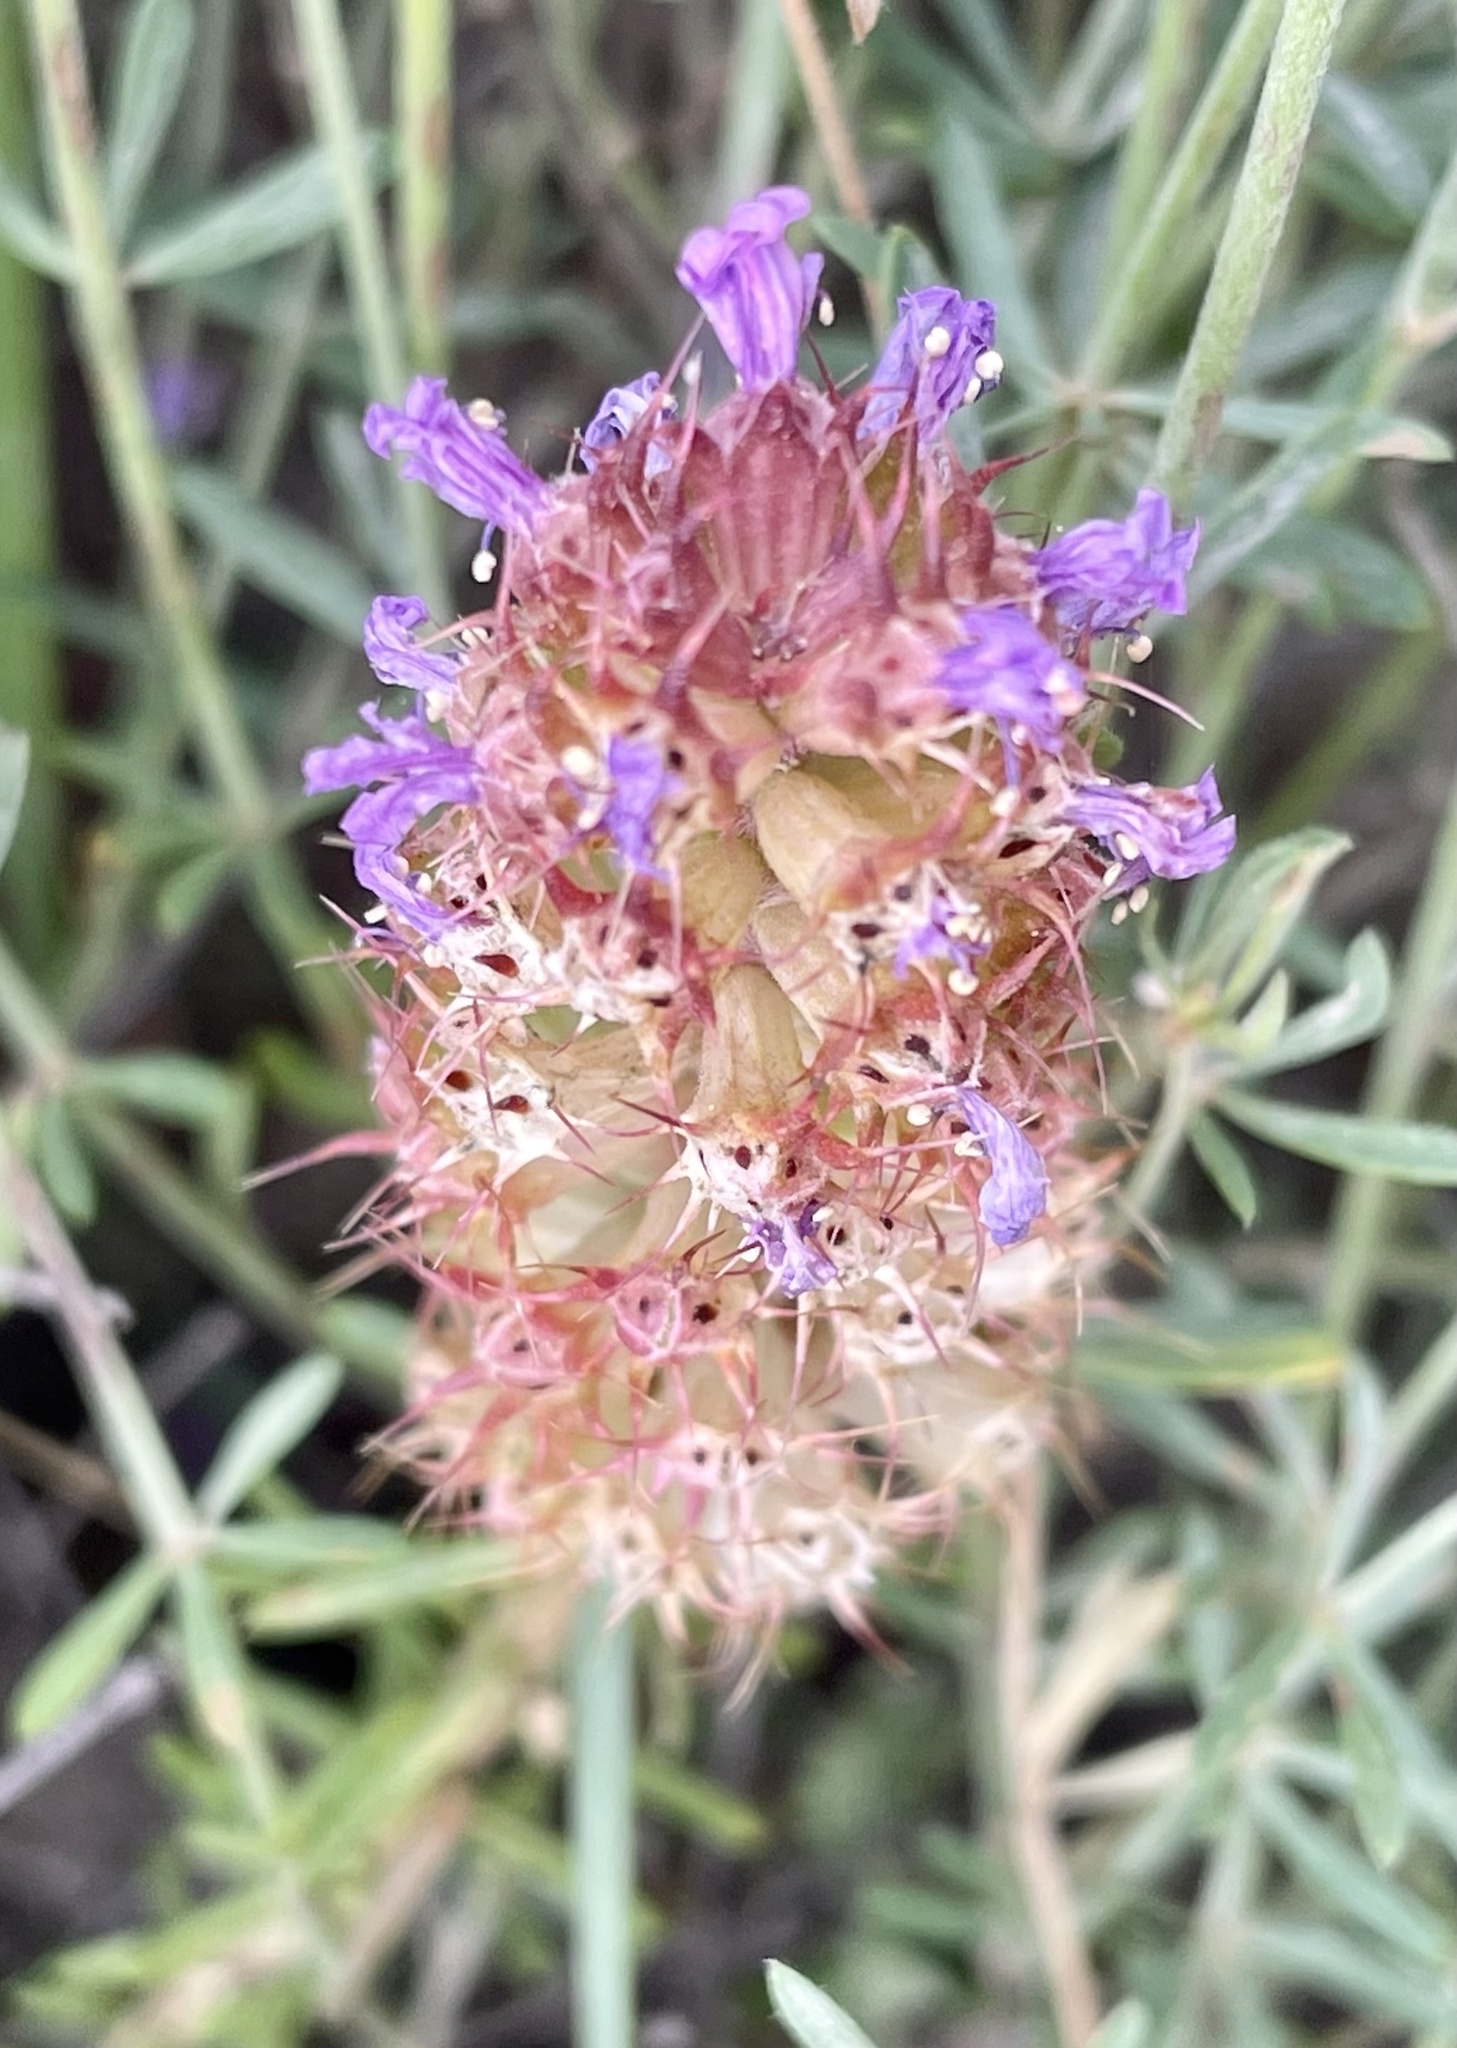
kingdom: Plantae
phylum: Tracheophyta
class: Magnoliopsida
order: Ericales
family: Primulaceae
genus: Coris
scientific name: Coris monspeliensis
